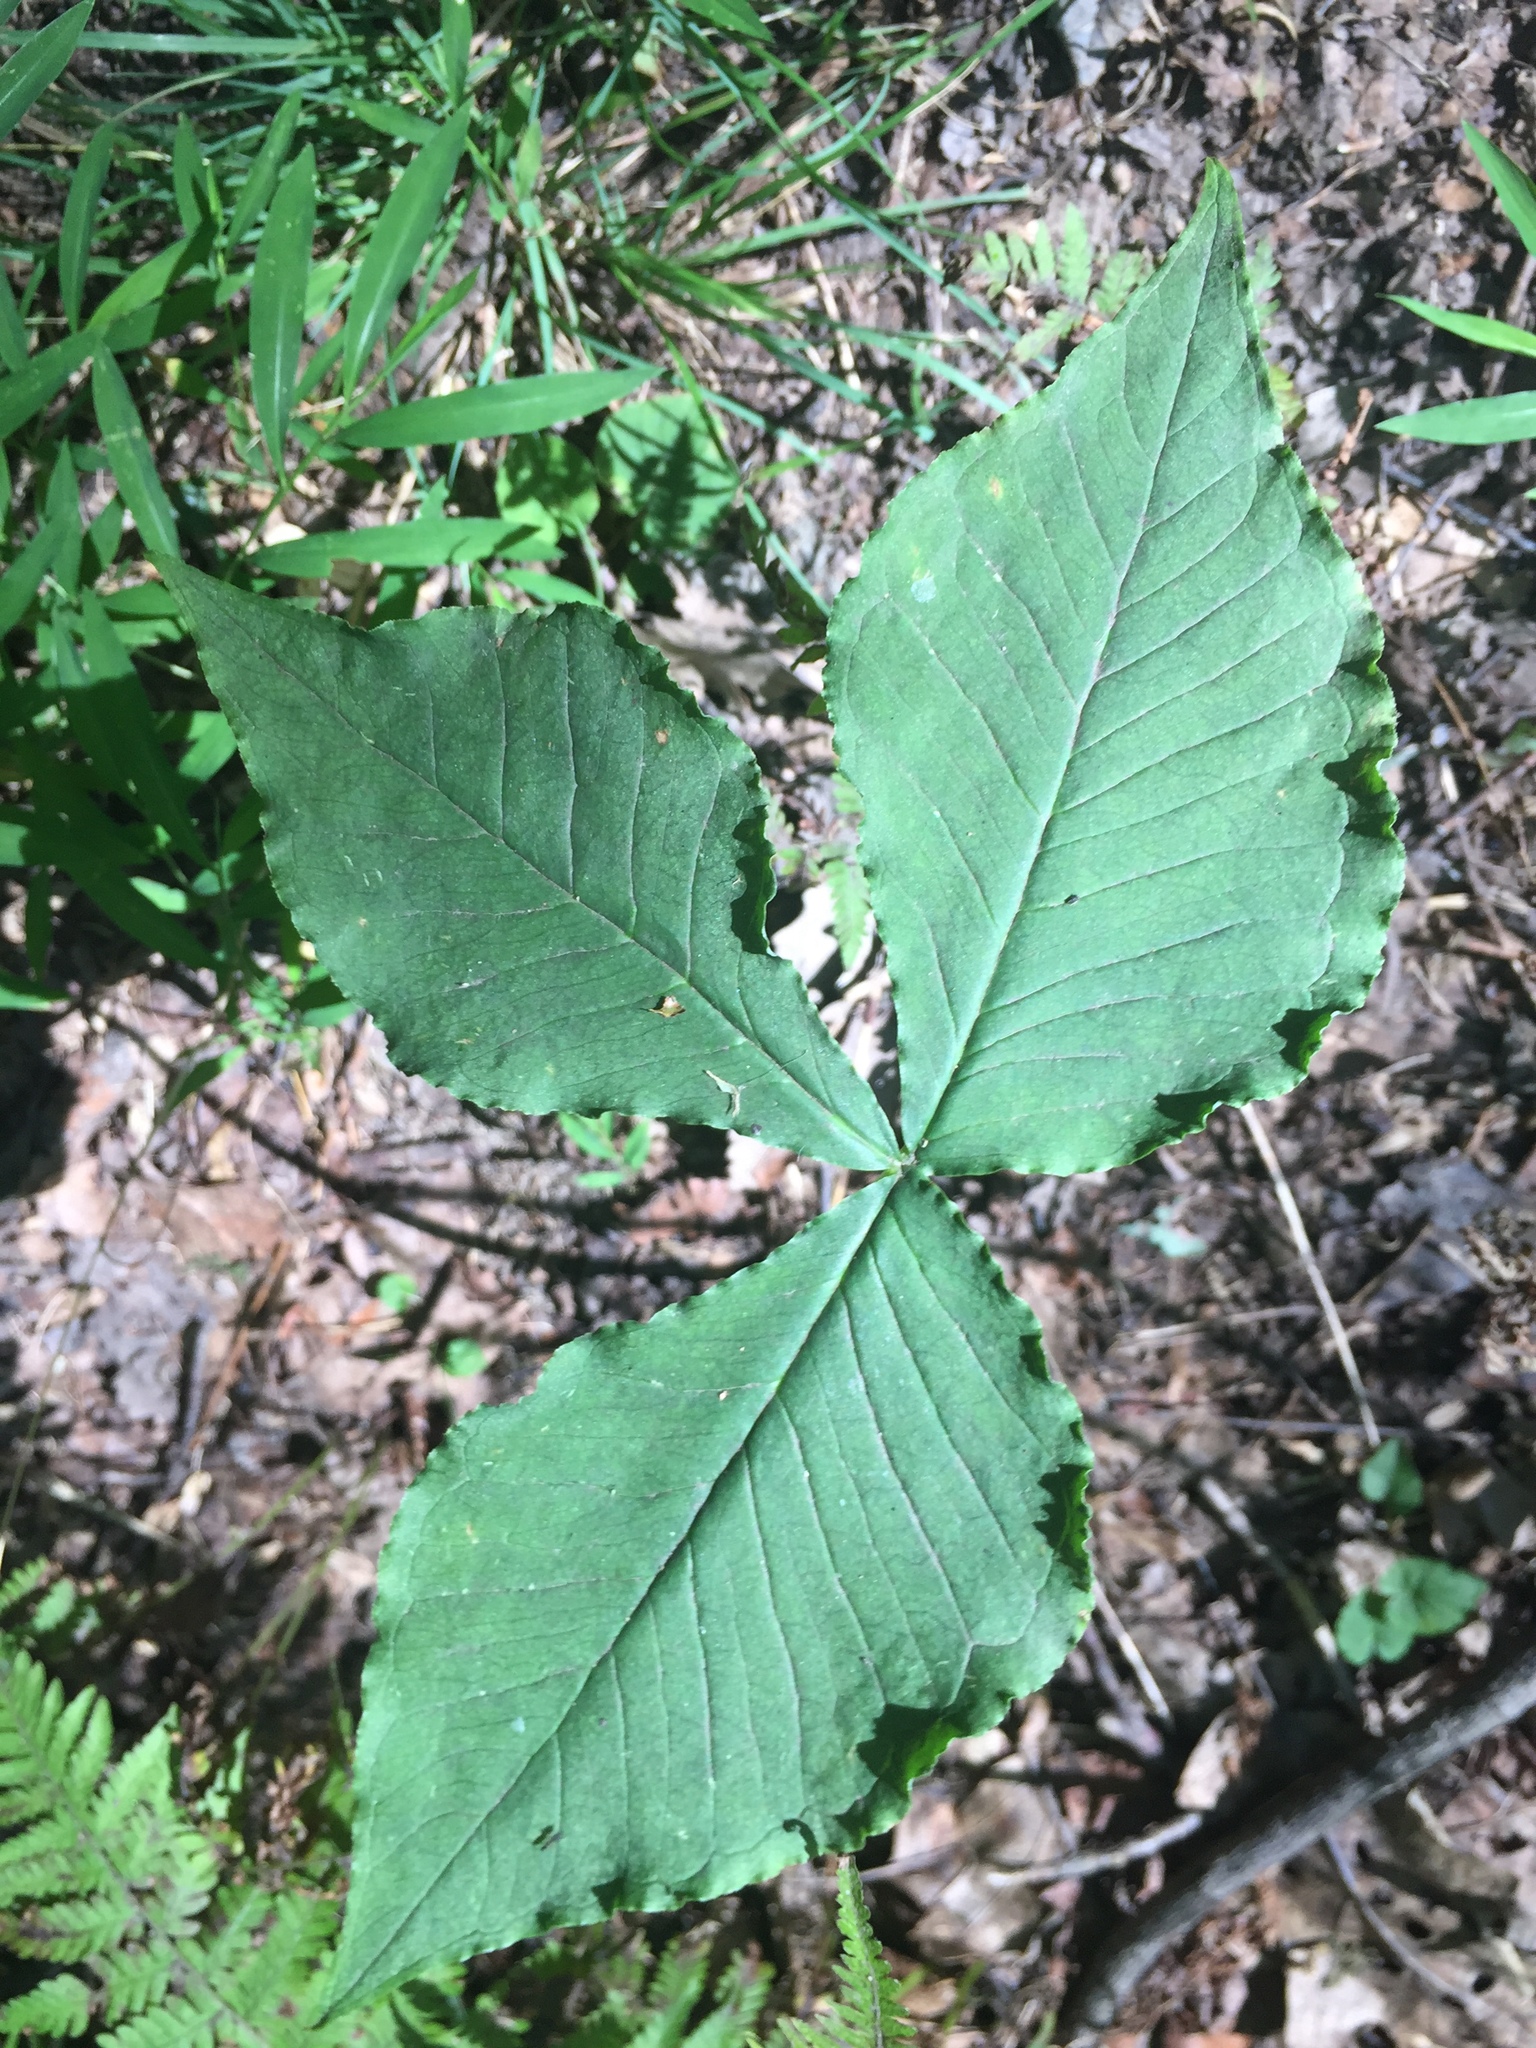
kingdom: Plantae
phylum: Tracheophyta
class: Liliopsida
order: Alismatales
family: Araceae
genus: Arisaema
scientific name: Arisaema triphyllum
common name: Jack-in-the-pulpit
